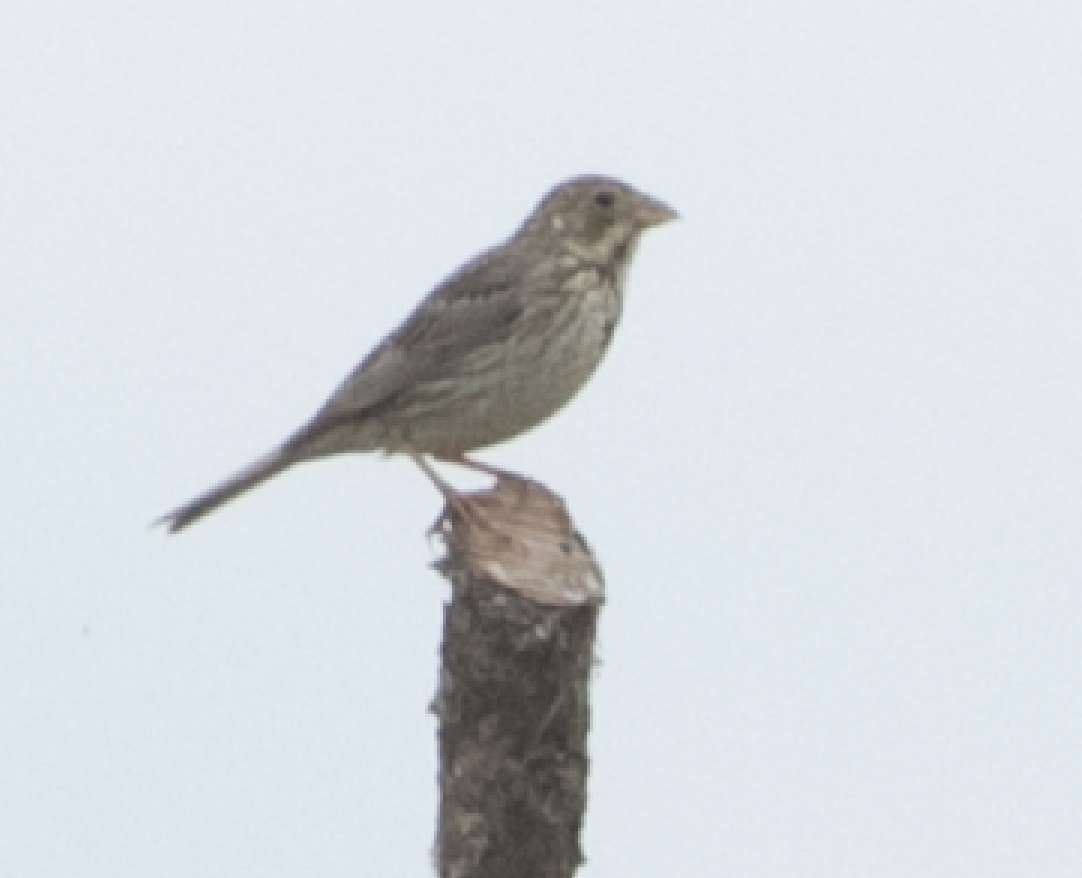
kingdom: Animalia
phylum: Chordata
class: Aves
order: Passeriformes
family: Emberizidae
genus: Emberiza
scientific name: Emberiza calandra
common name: Corn bunting
